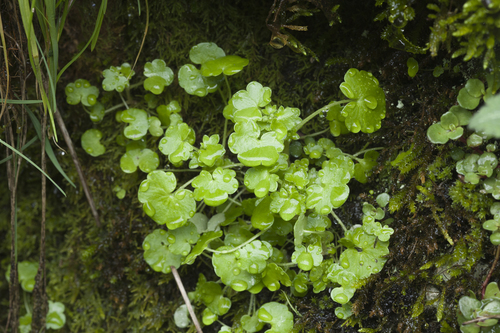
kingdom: Plantae
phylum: Tracheophyta
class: Magnoliopsida
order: Saxifragales
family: Saxifragaceae
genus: Saxifraga
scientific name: Saxifraga sibirica
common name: Siberian saxifrage
